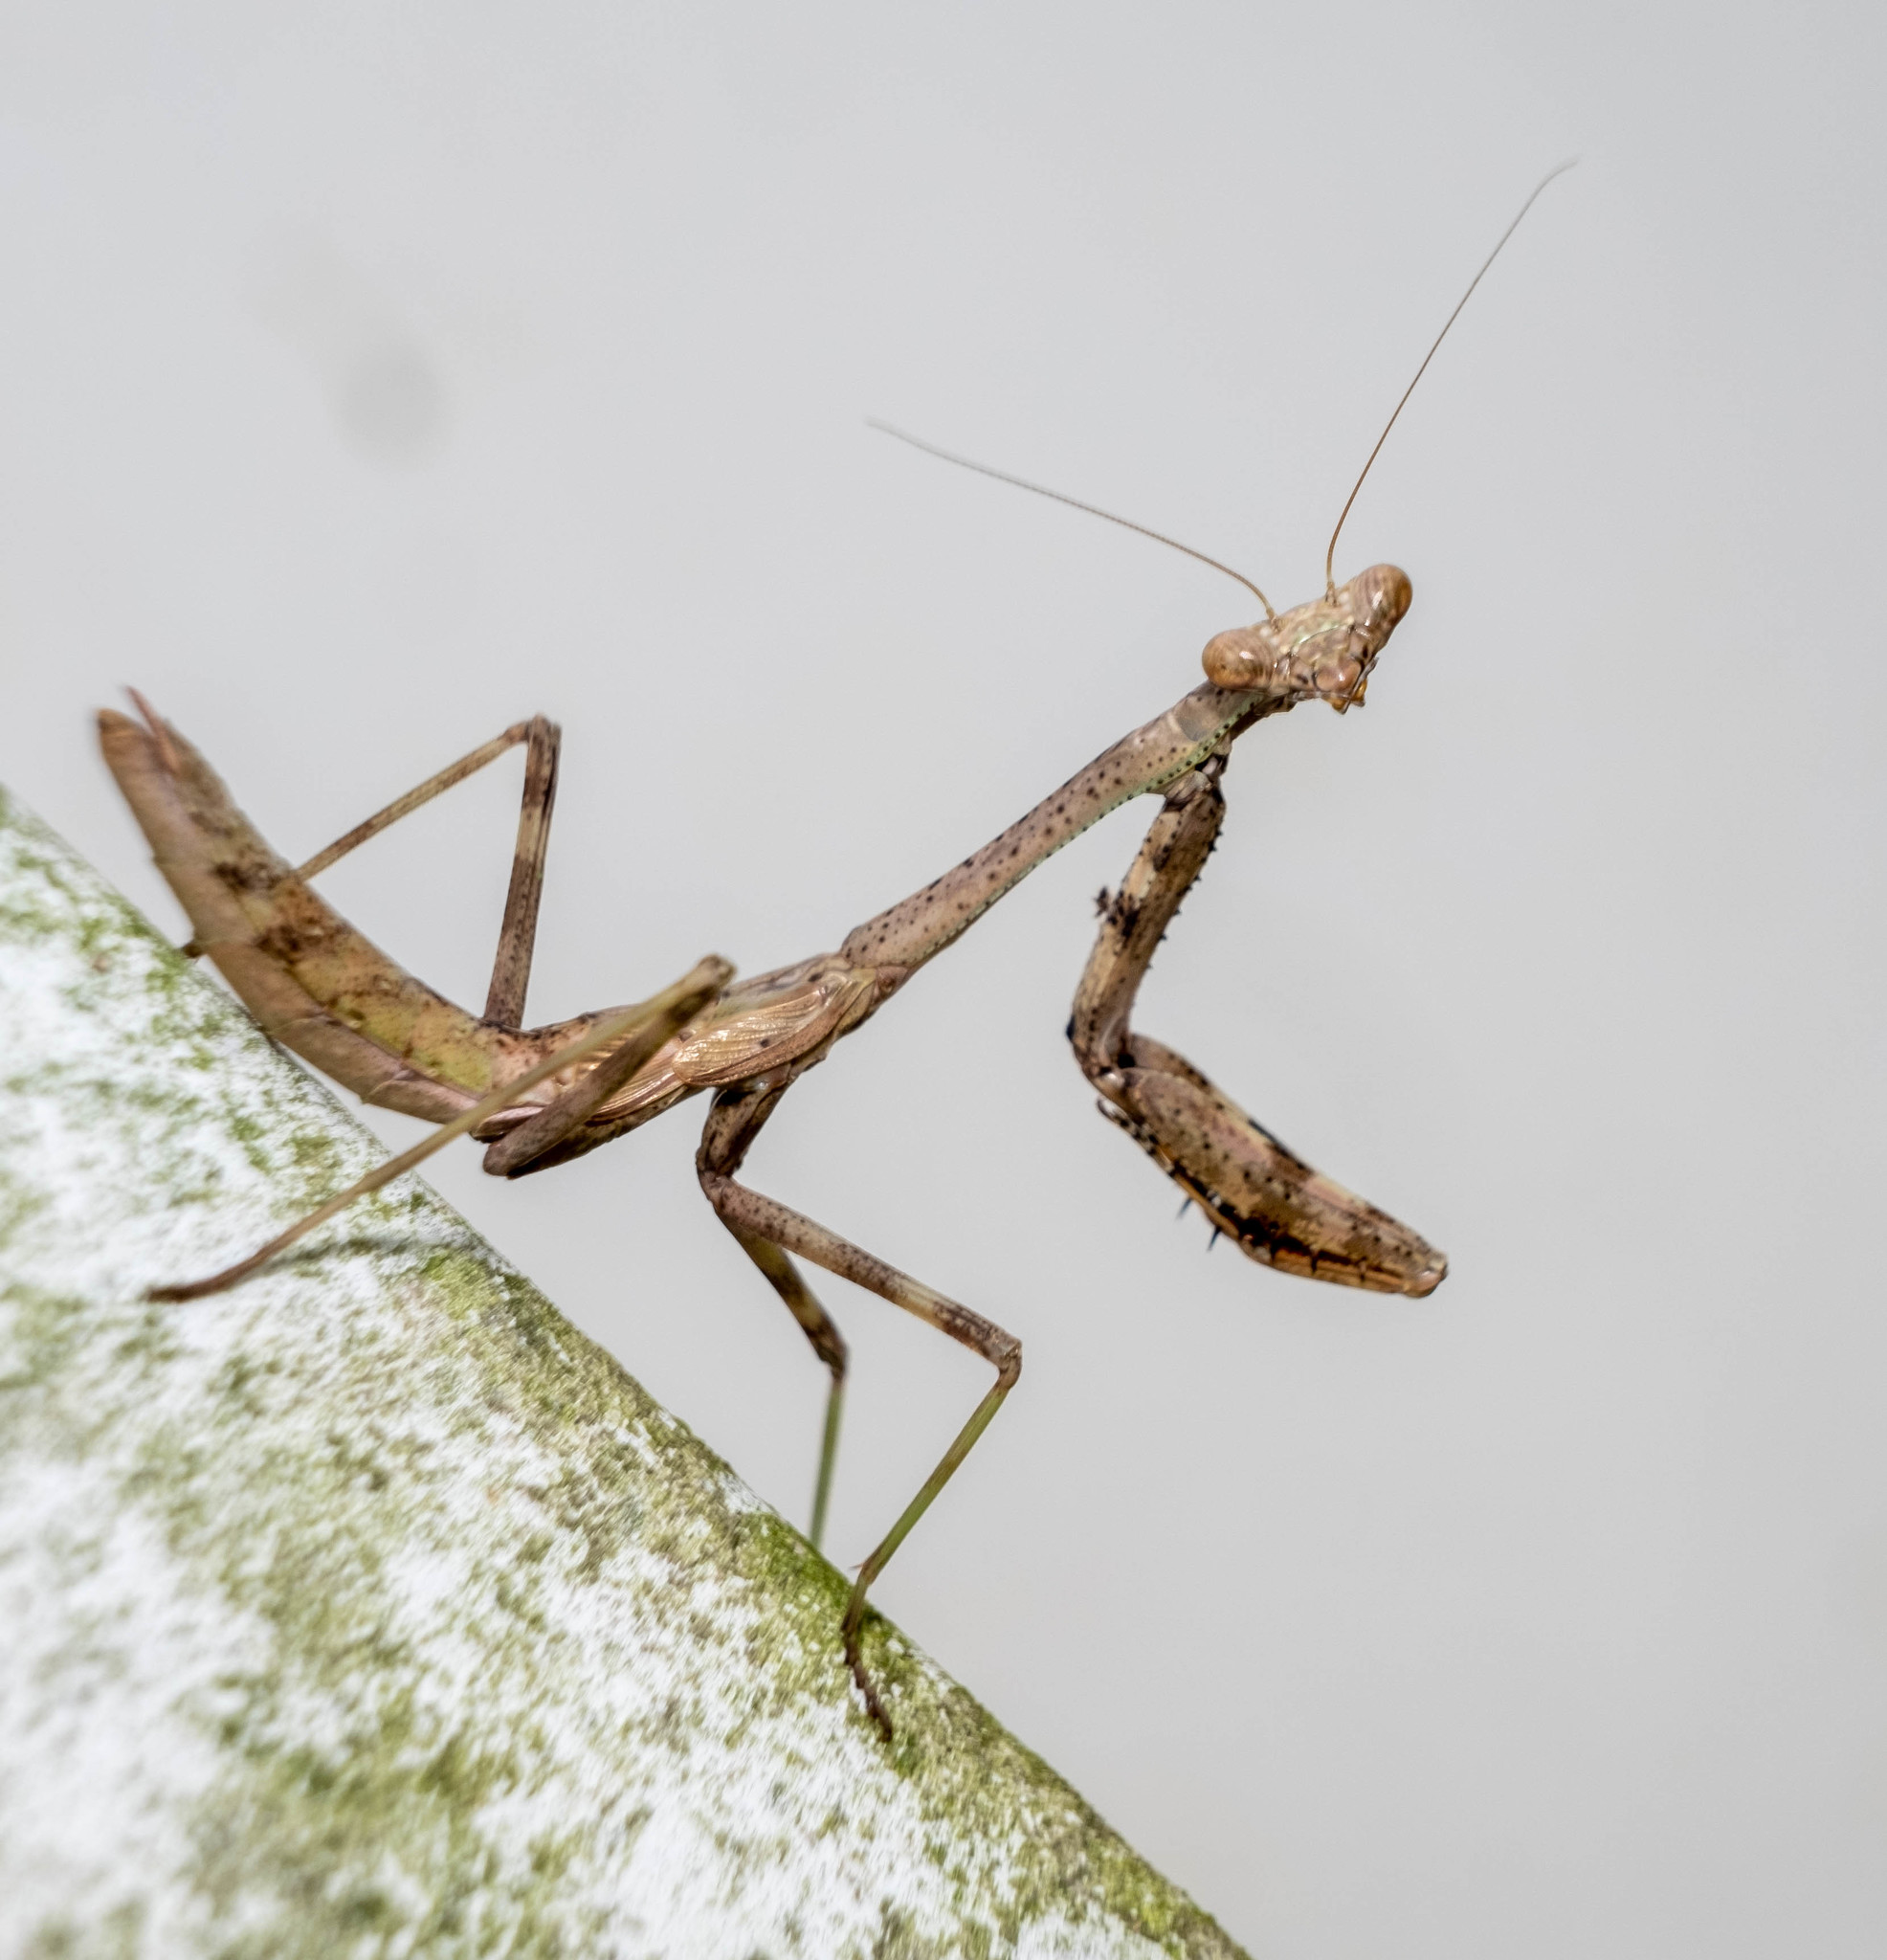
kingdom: Animalia
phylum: Arthropoda
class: Insecta
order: Mantodea
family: Mantidae
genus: Stagmomantis
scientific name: Stagmomantis carolina
